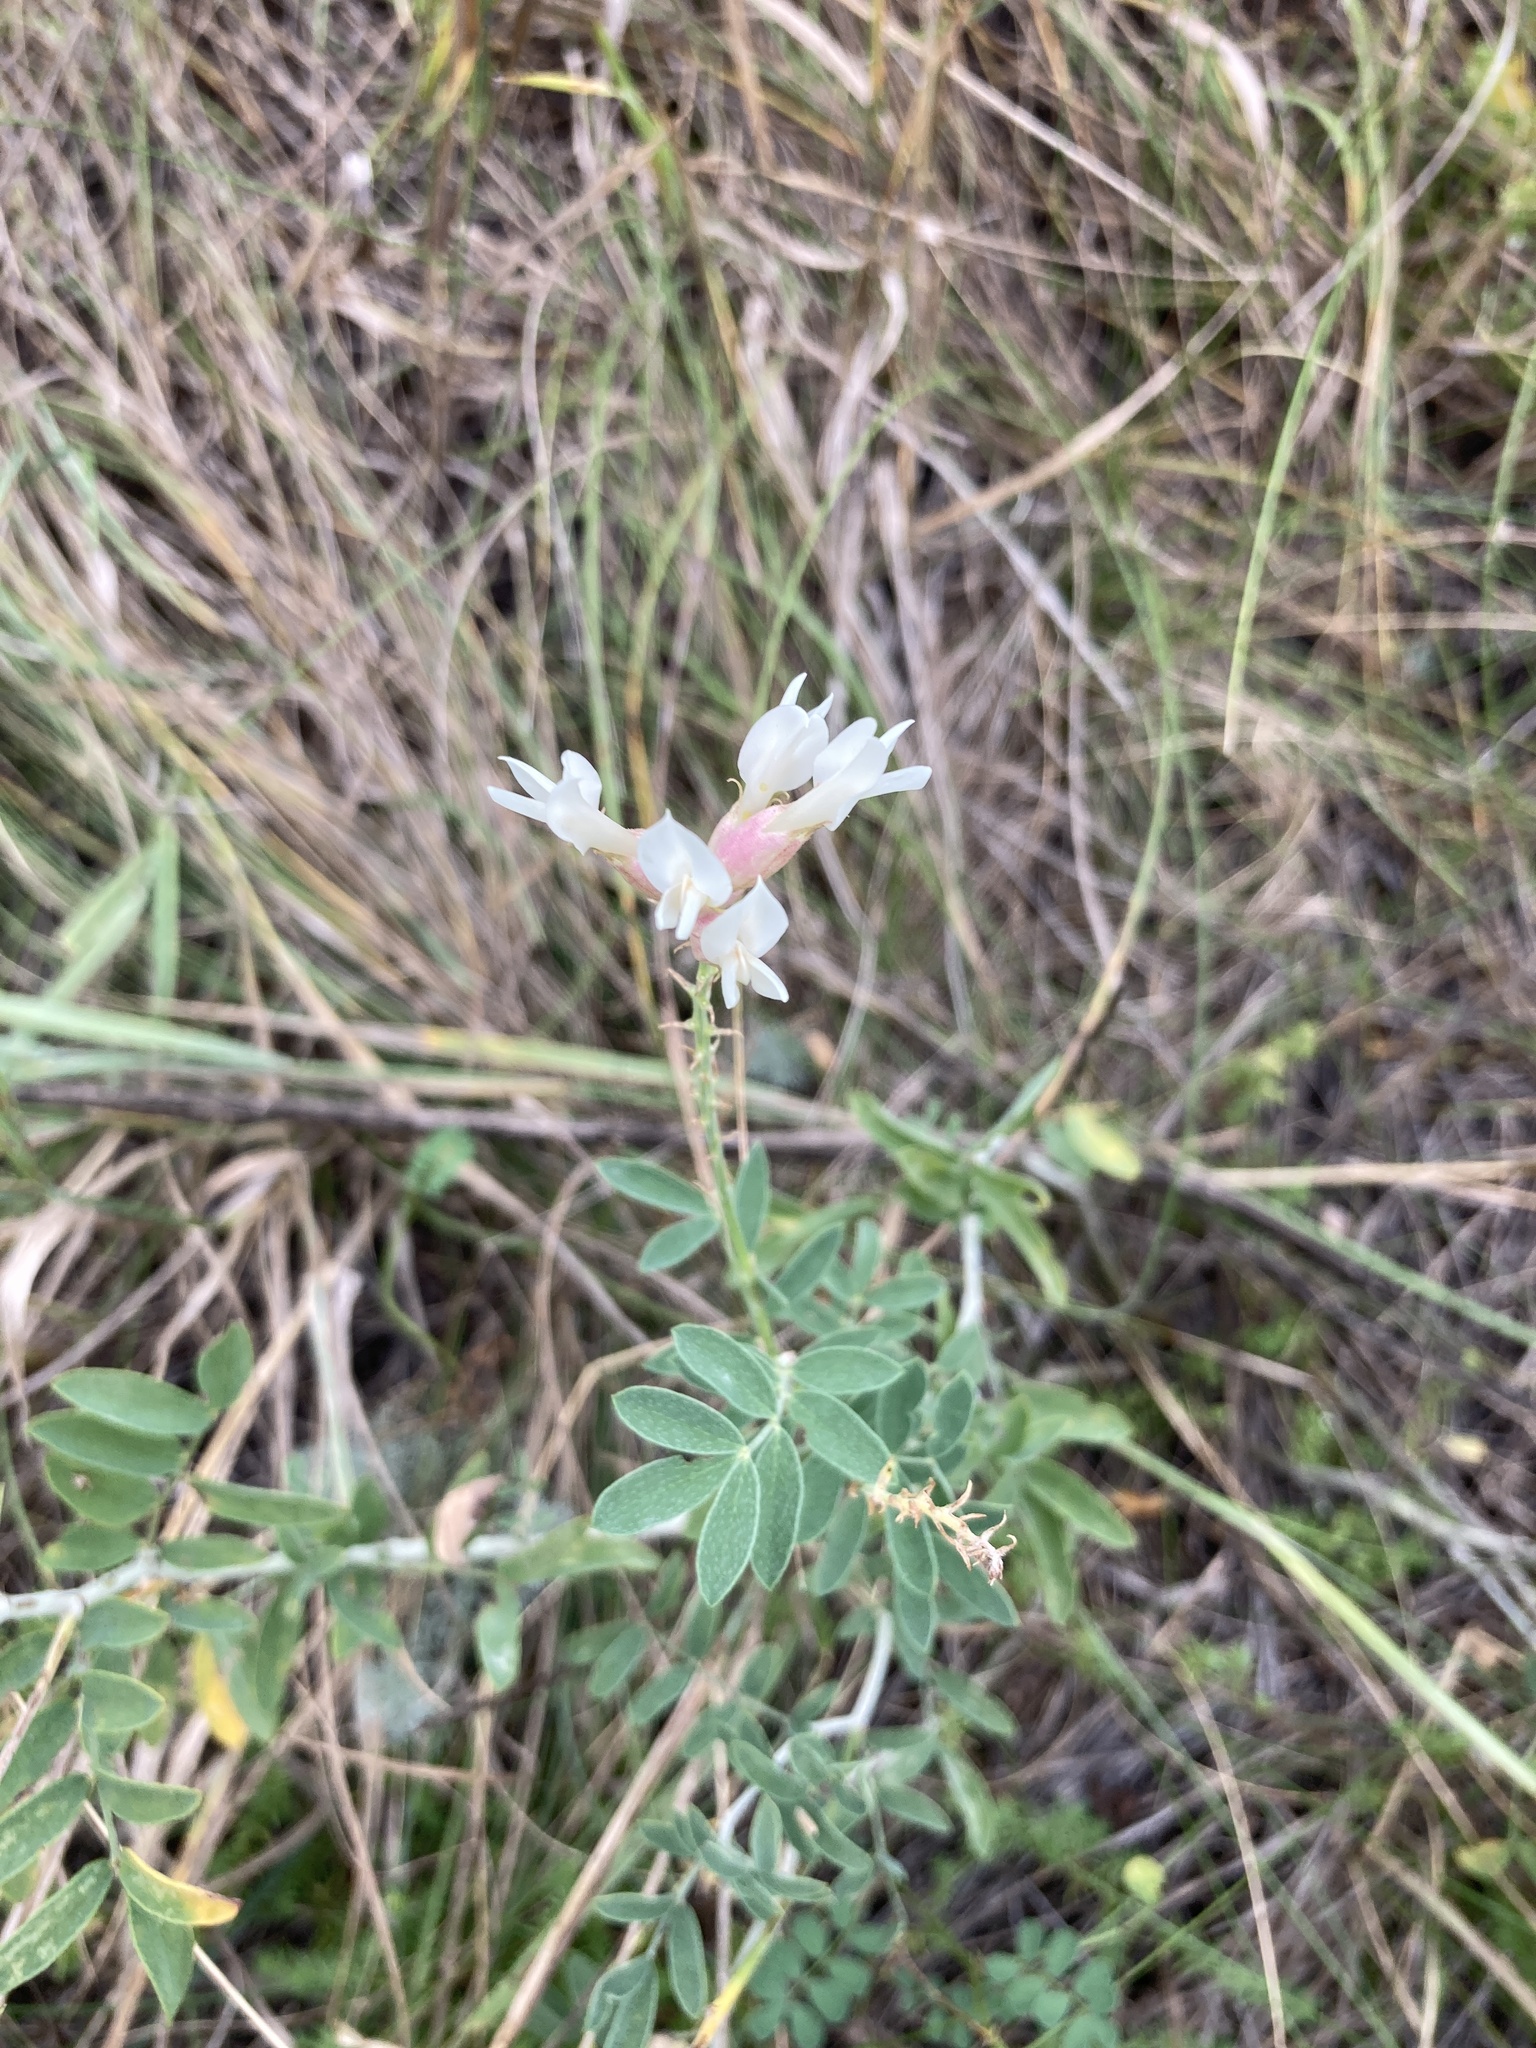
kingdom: Plantae
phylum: Tracheophyta
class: Magnoliopsida
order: Fabales
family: Fabaceae
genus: Astragalus
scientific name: Astragalus albicaulis
